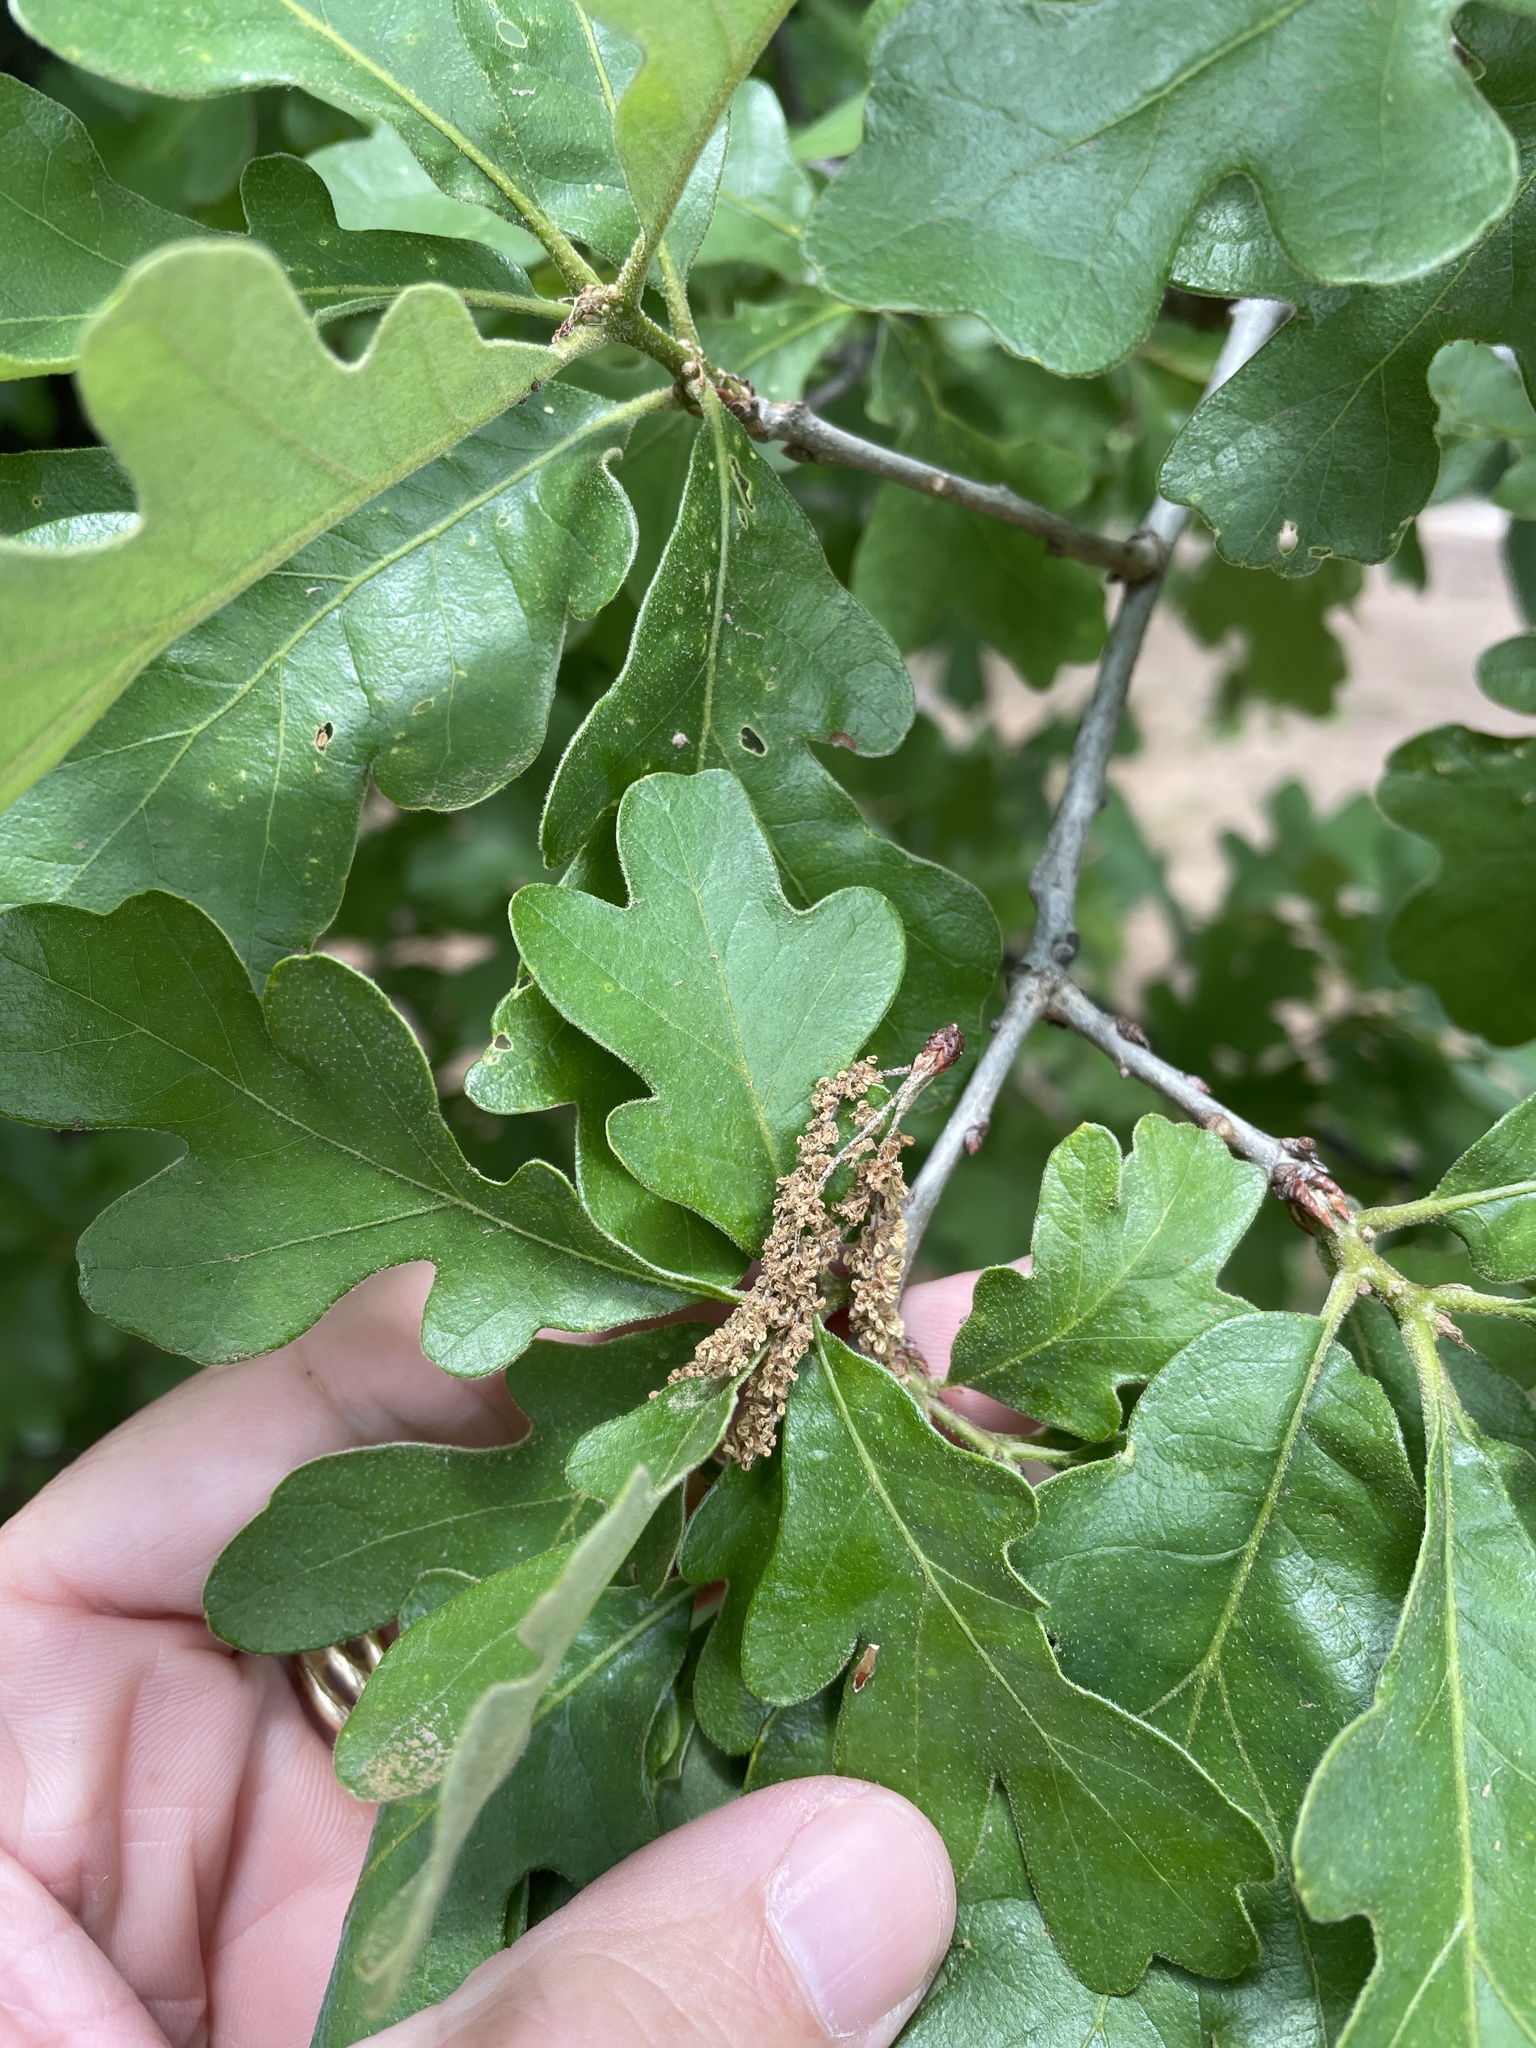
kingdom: Plantae
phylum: Tracheophyta
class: Magnoliopsida
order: Fagales
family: Fagaceae
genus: Quercus
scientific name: Quercus margaretiae
